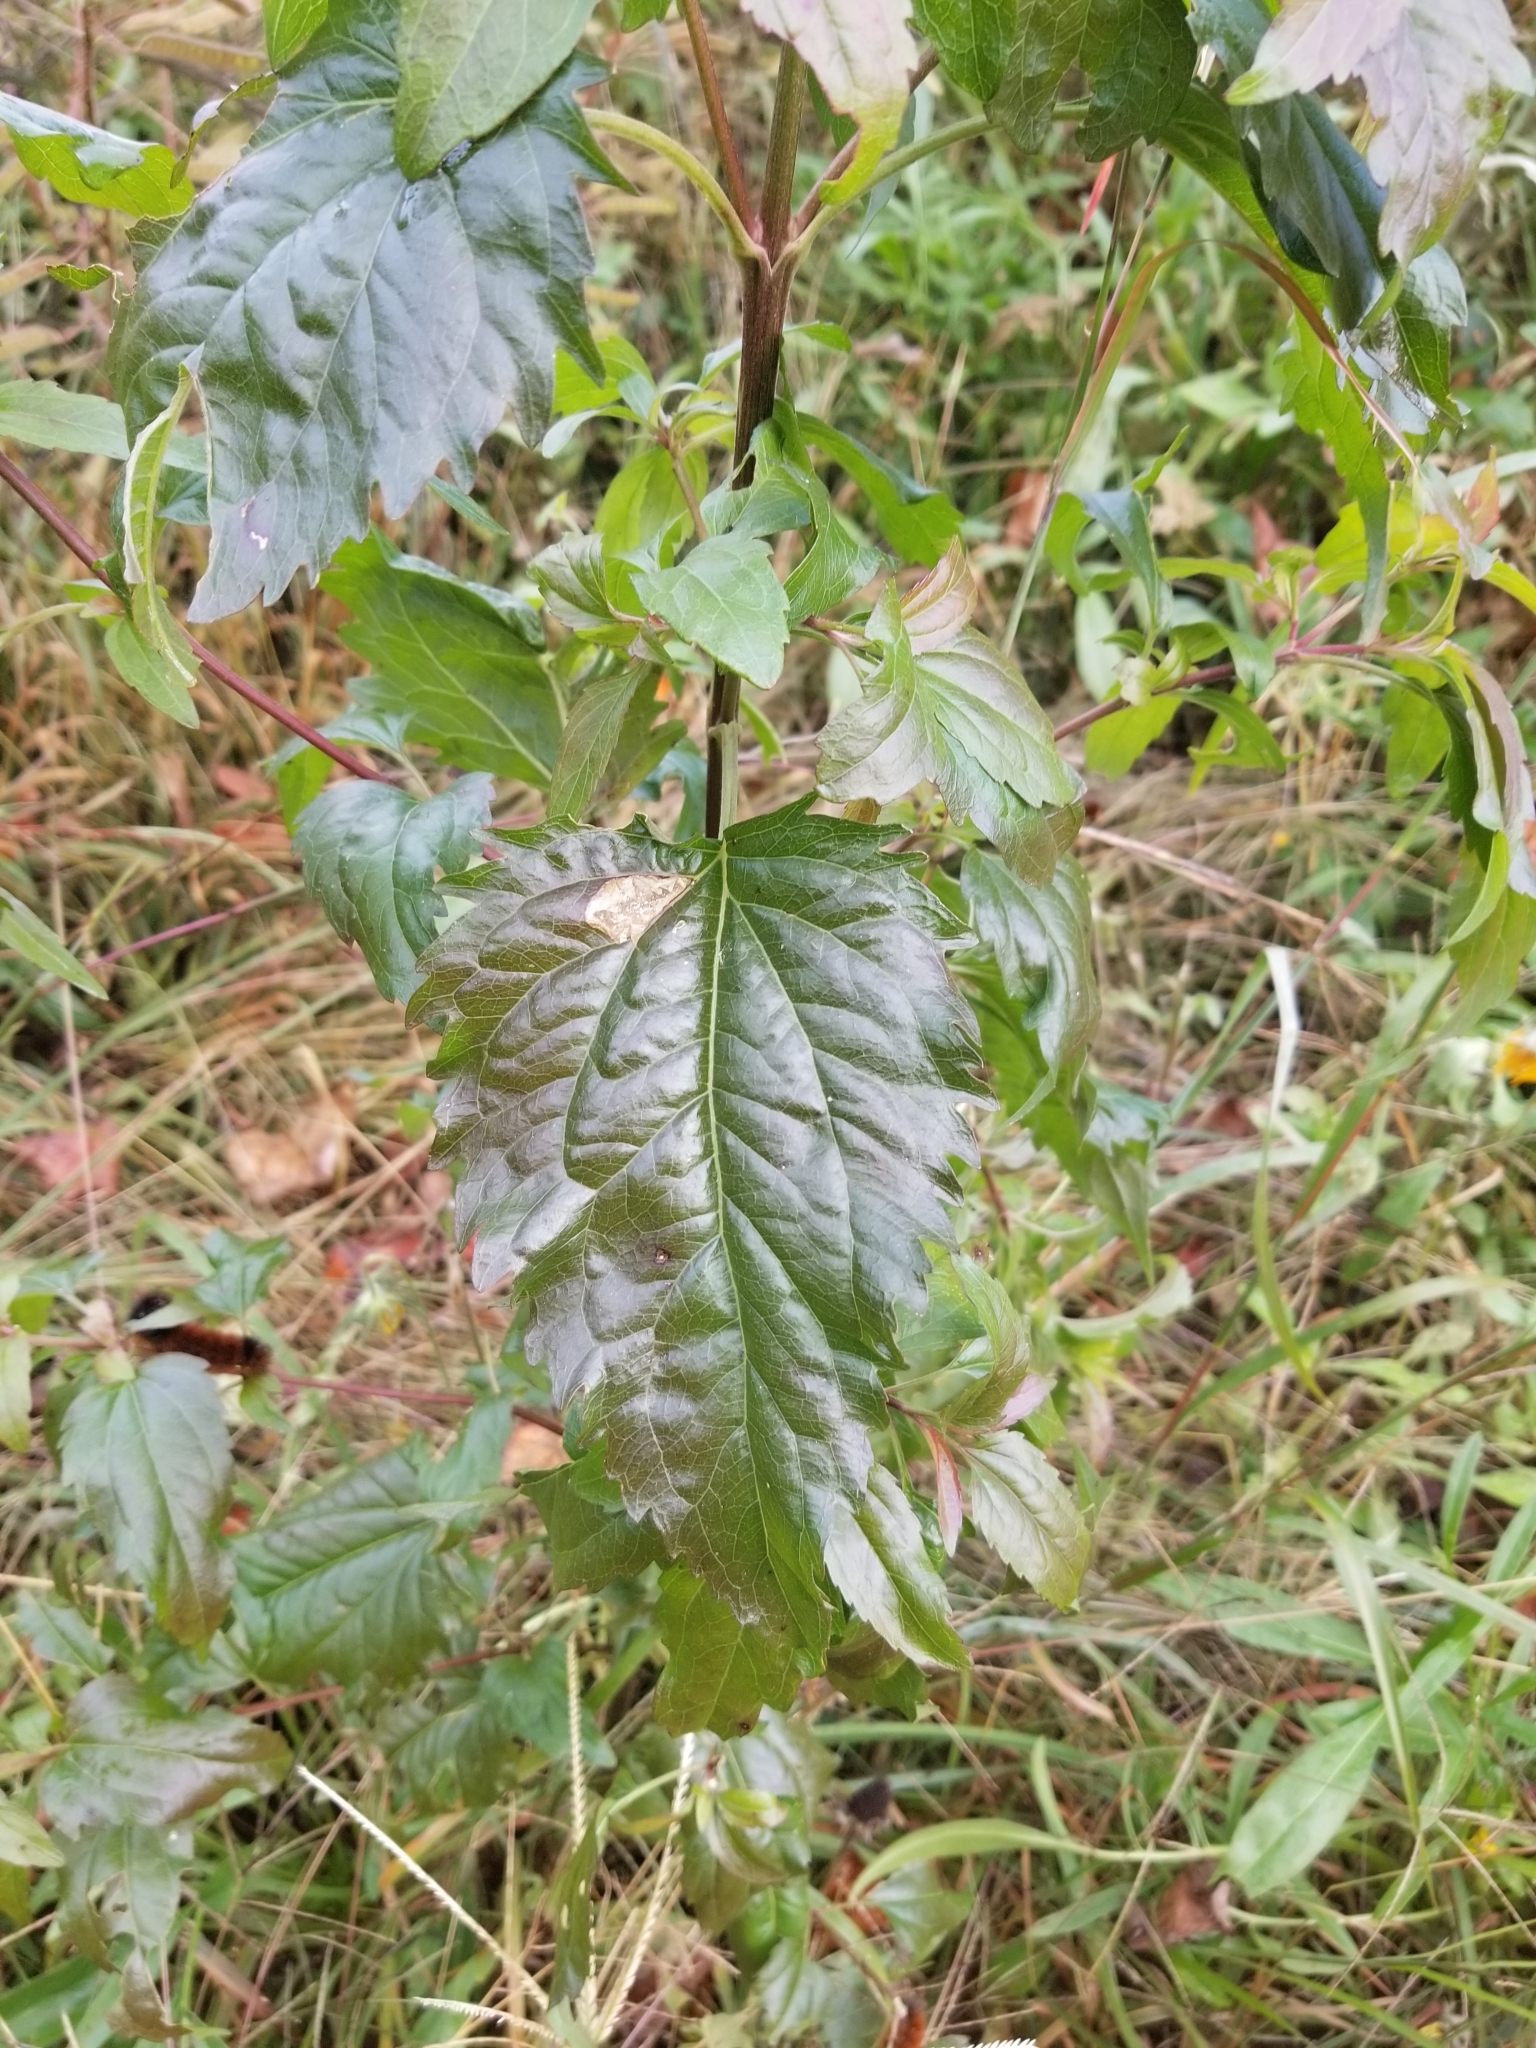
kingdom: Plantae
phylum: Tracheophyta
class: Magnoliopsida
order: Asterales
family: Asteraceae
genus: Eupatorium
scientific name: Eupatorium serotinum
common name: Late boneset
